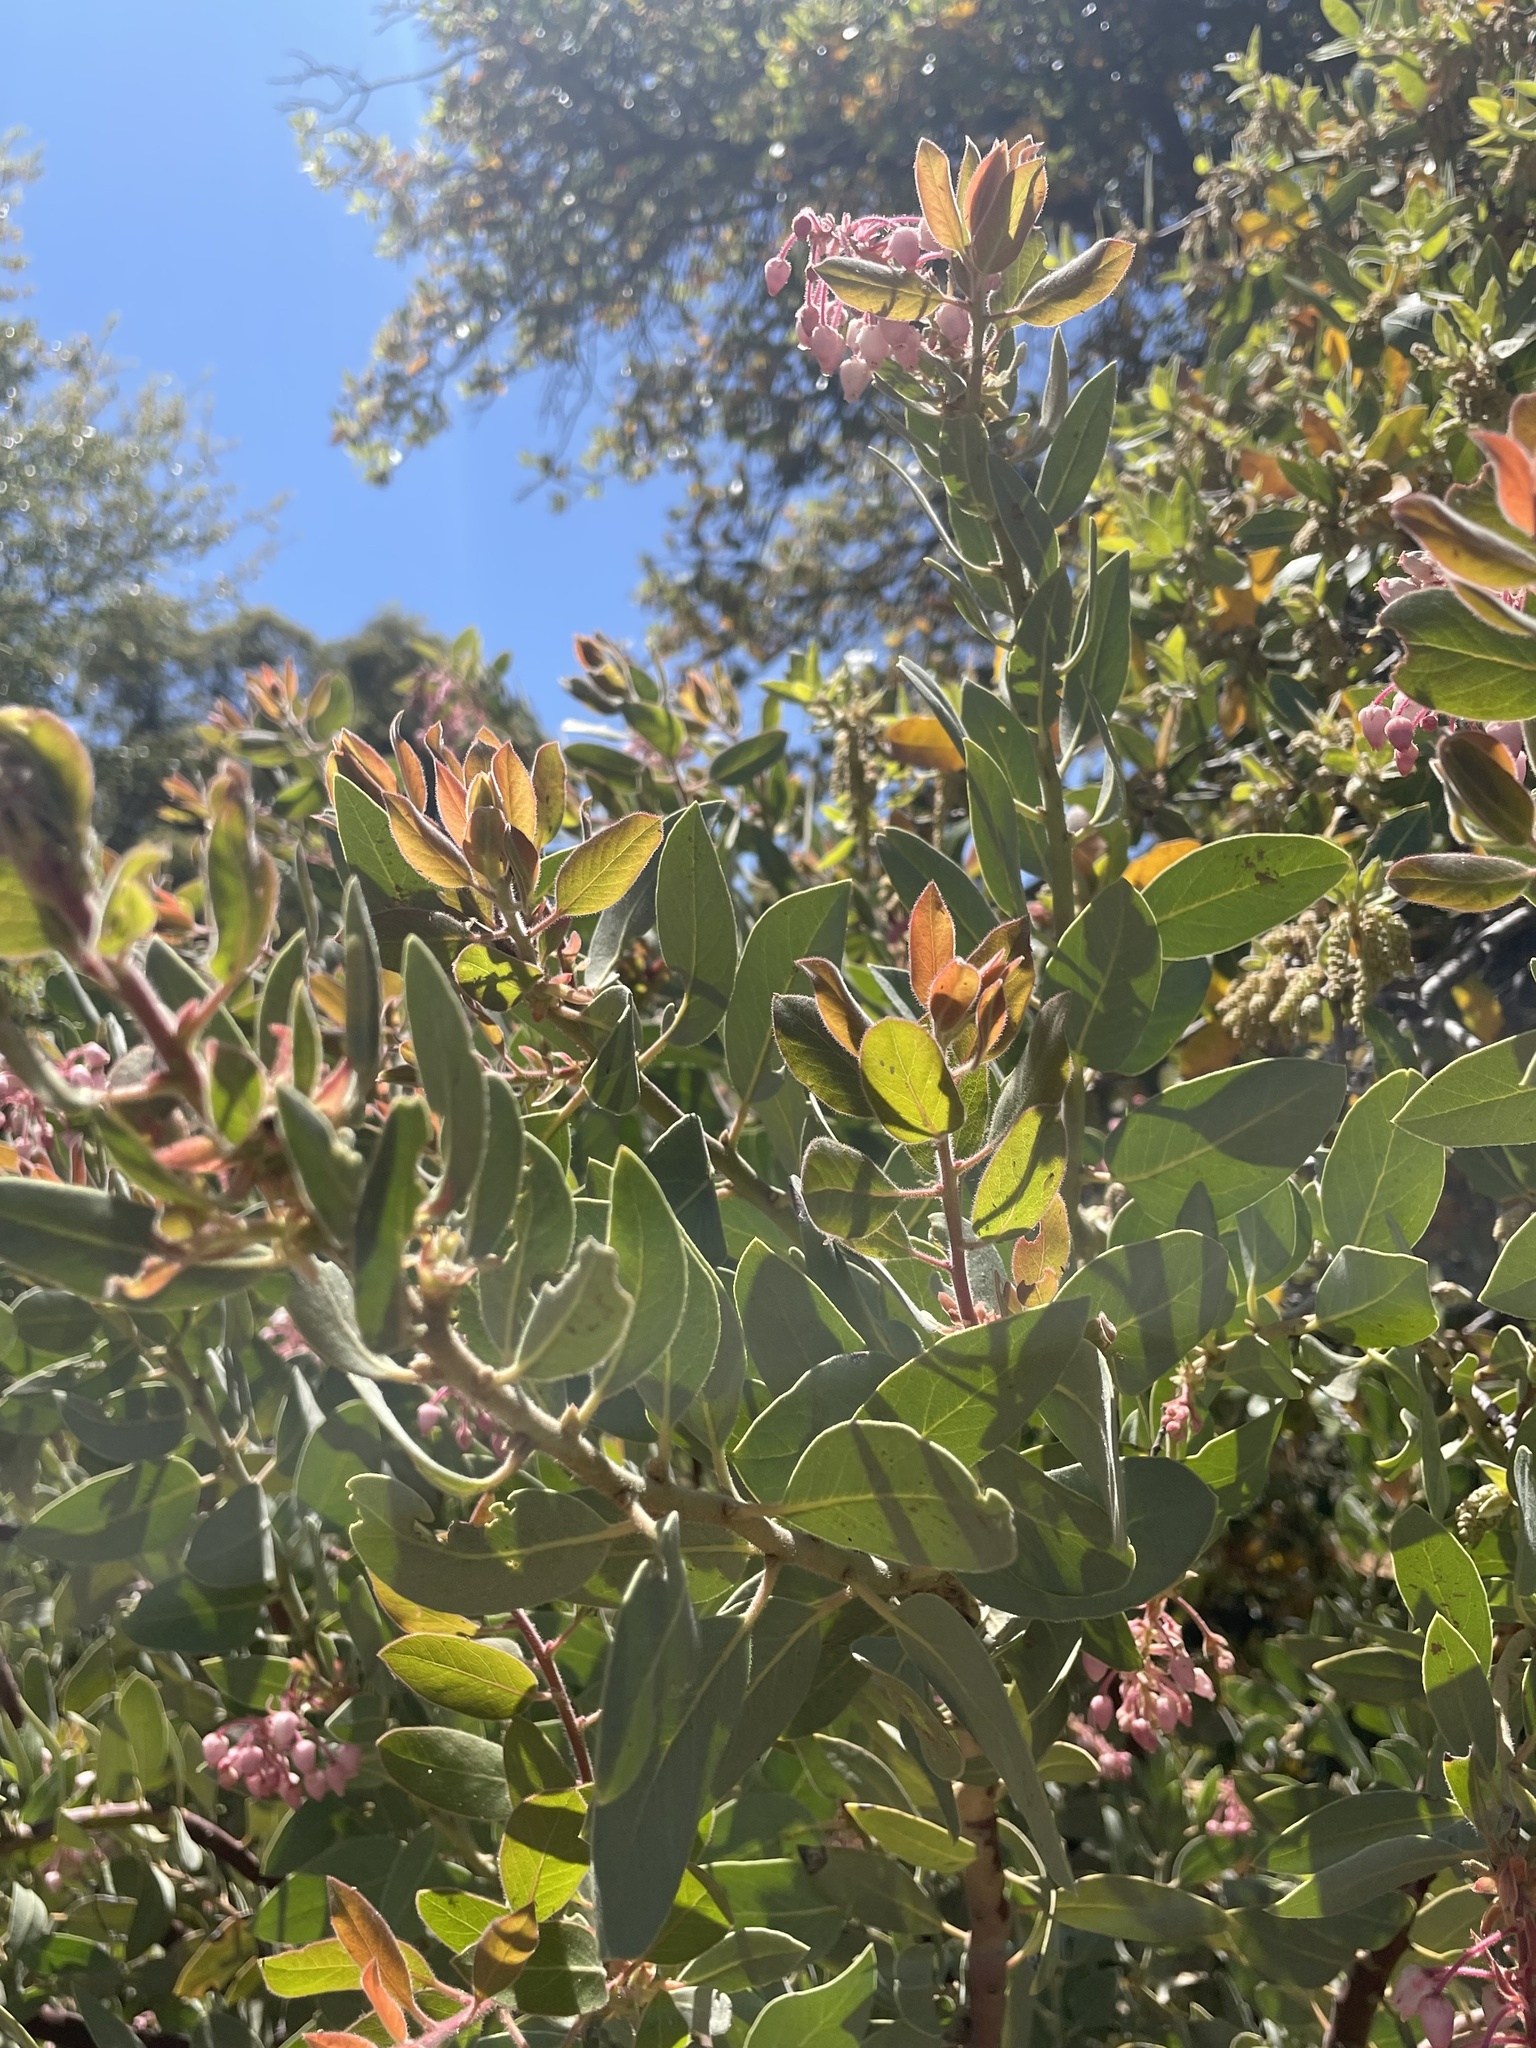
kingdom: Plantae
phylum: Tracheophyta
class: Magnoliopsida
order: Ericales
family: Ericaceae
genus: Arctostaphylos
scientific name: Arctostaphylos pringlei
